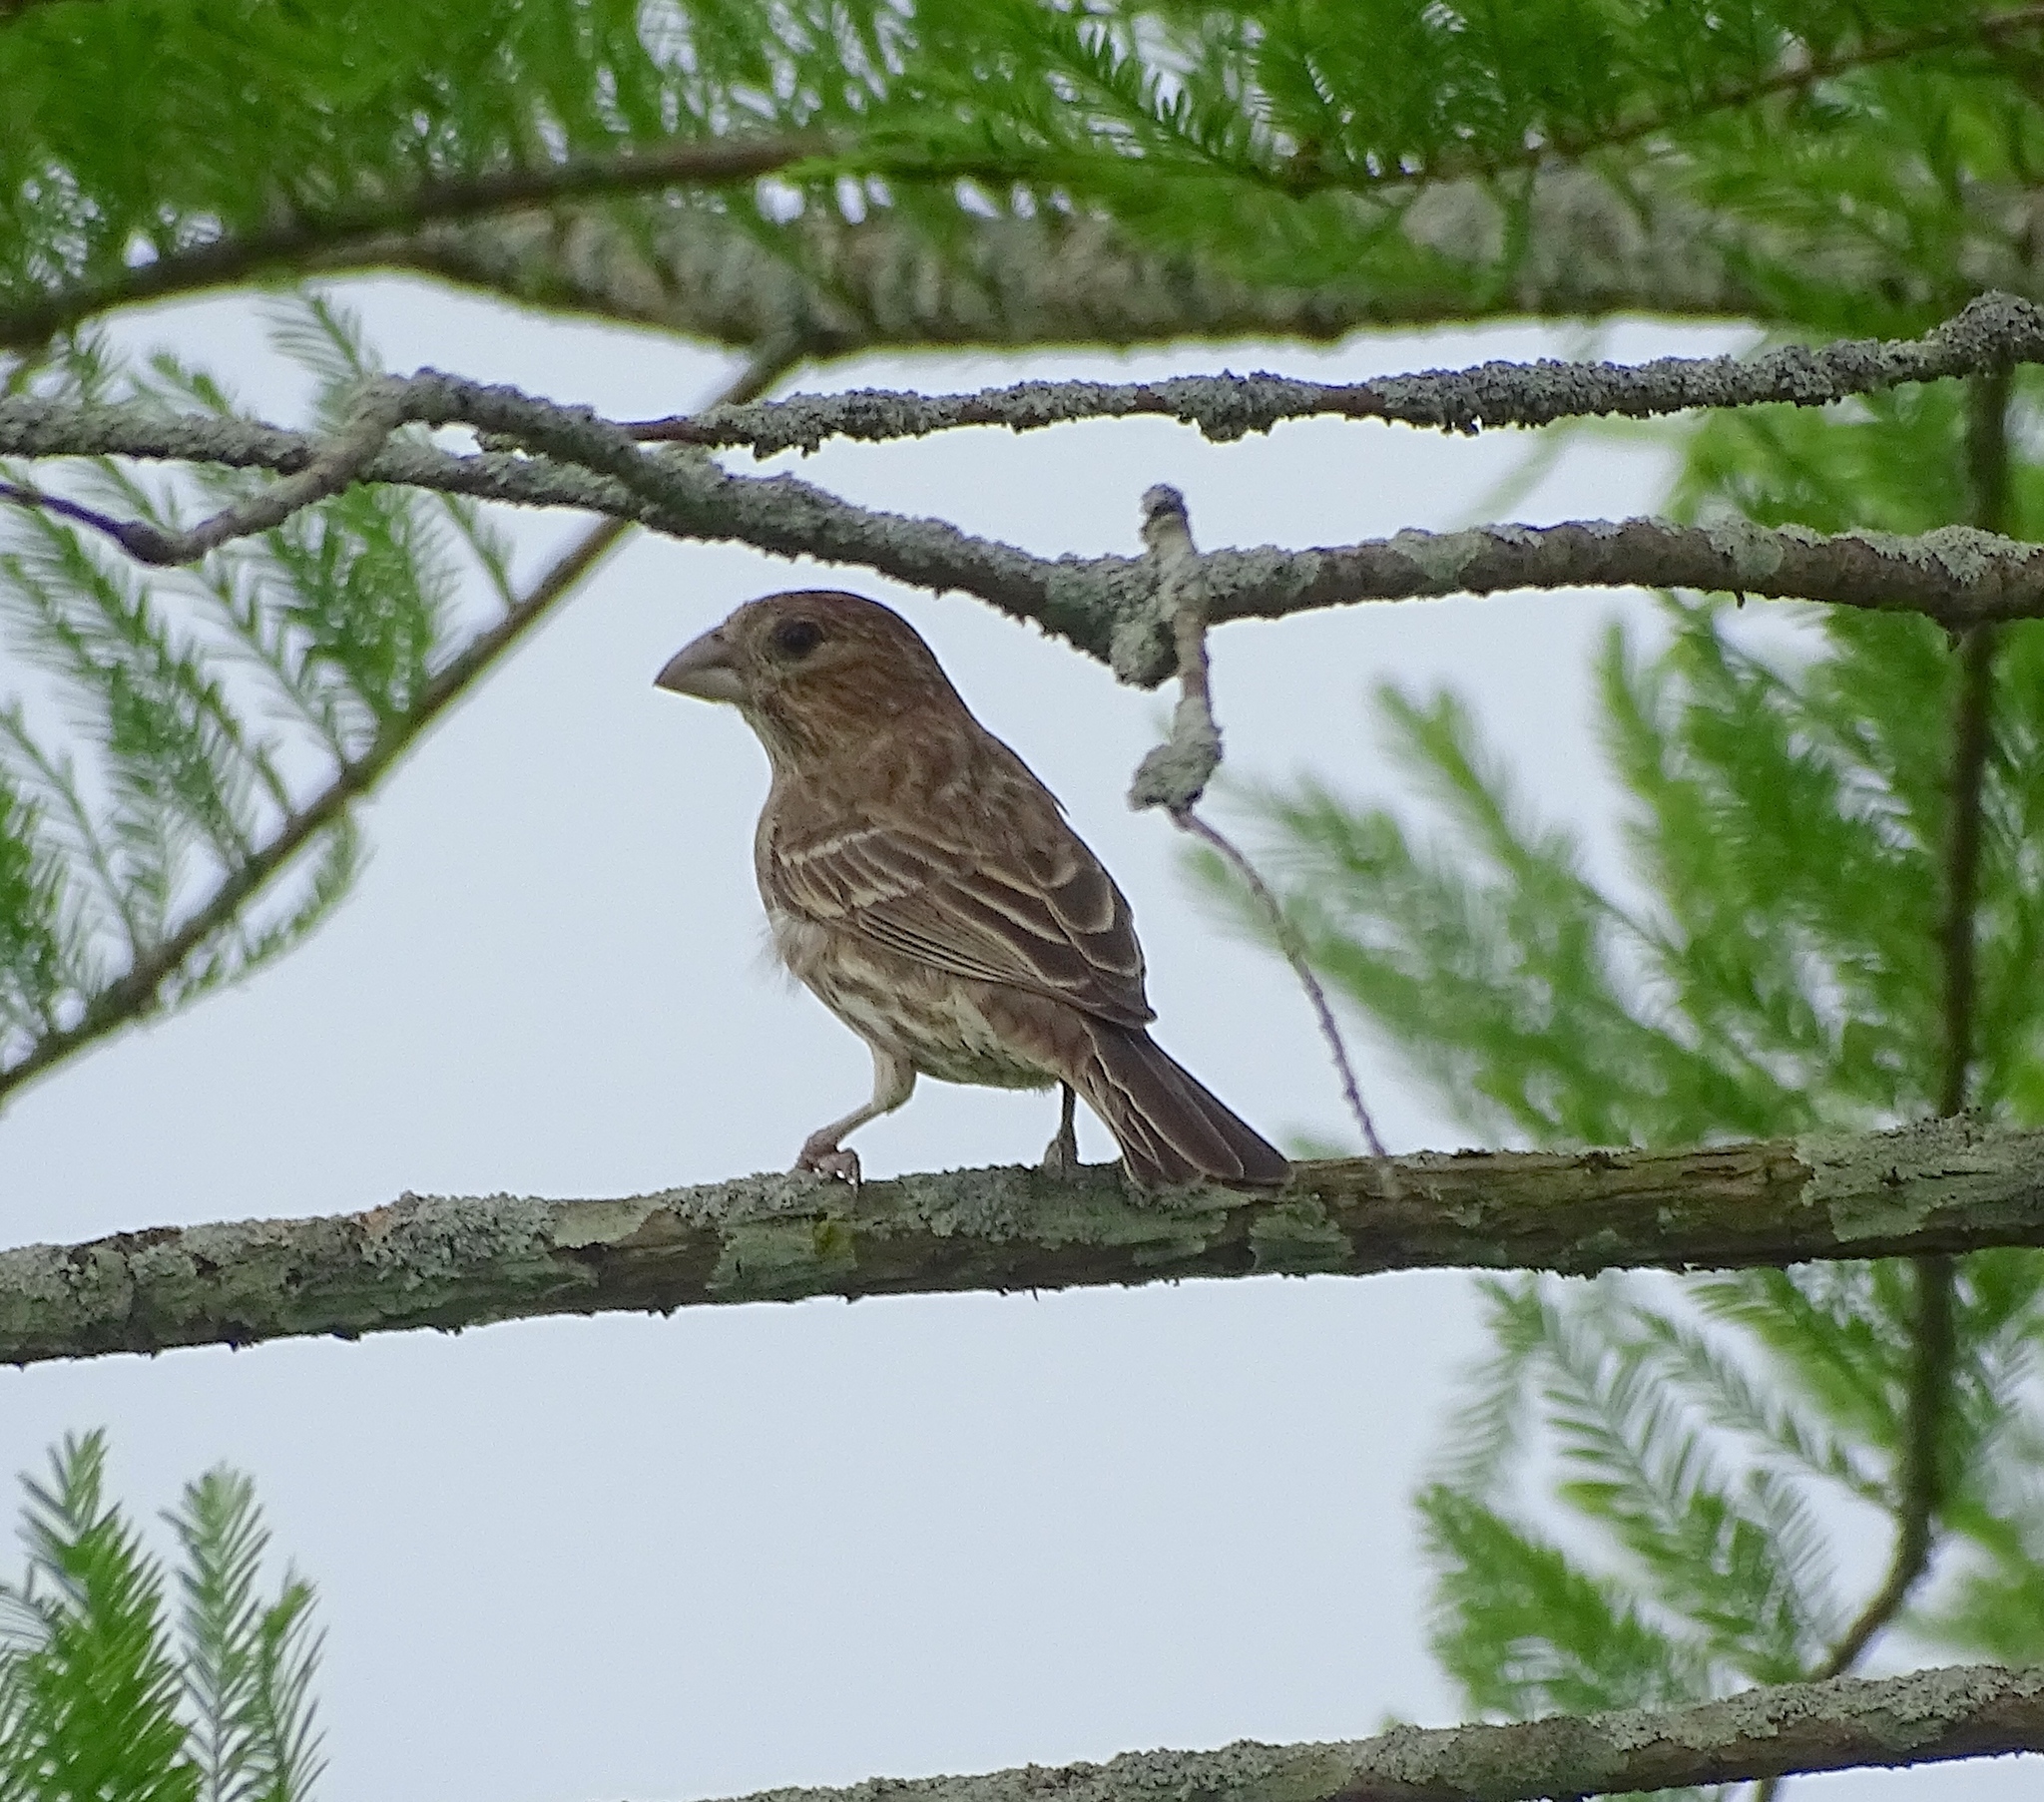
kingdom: Animalia
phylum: Chordata
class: Aves
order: Passeriformes
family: Fringillidae
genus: Haemorhous
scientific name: Haemorhous mexicanus
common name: House finch
